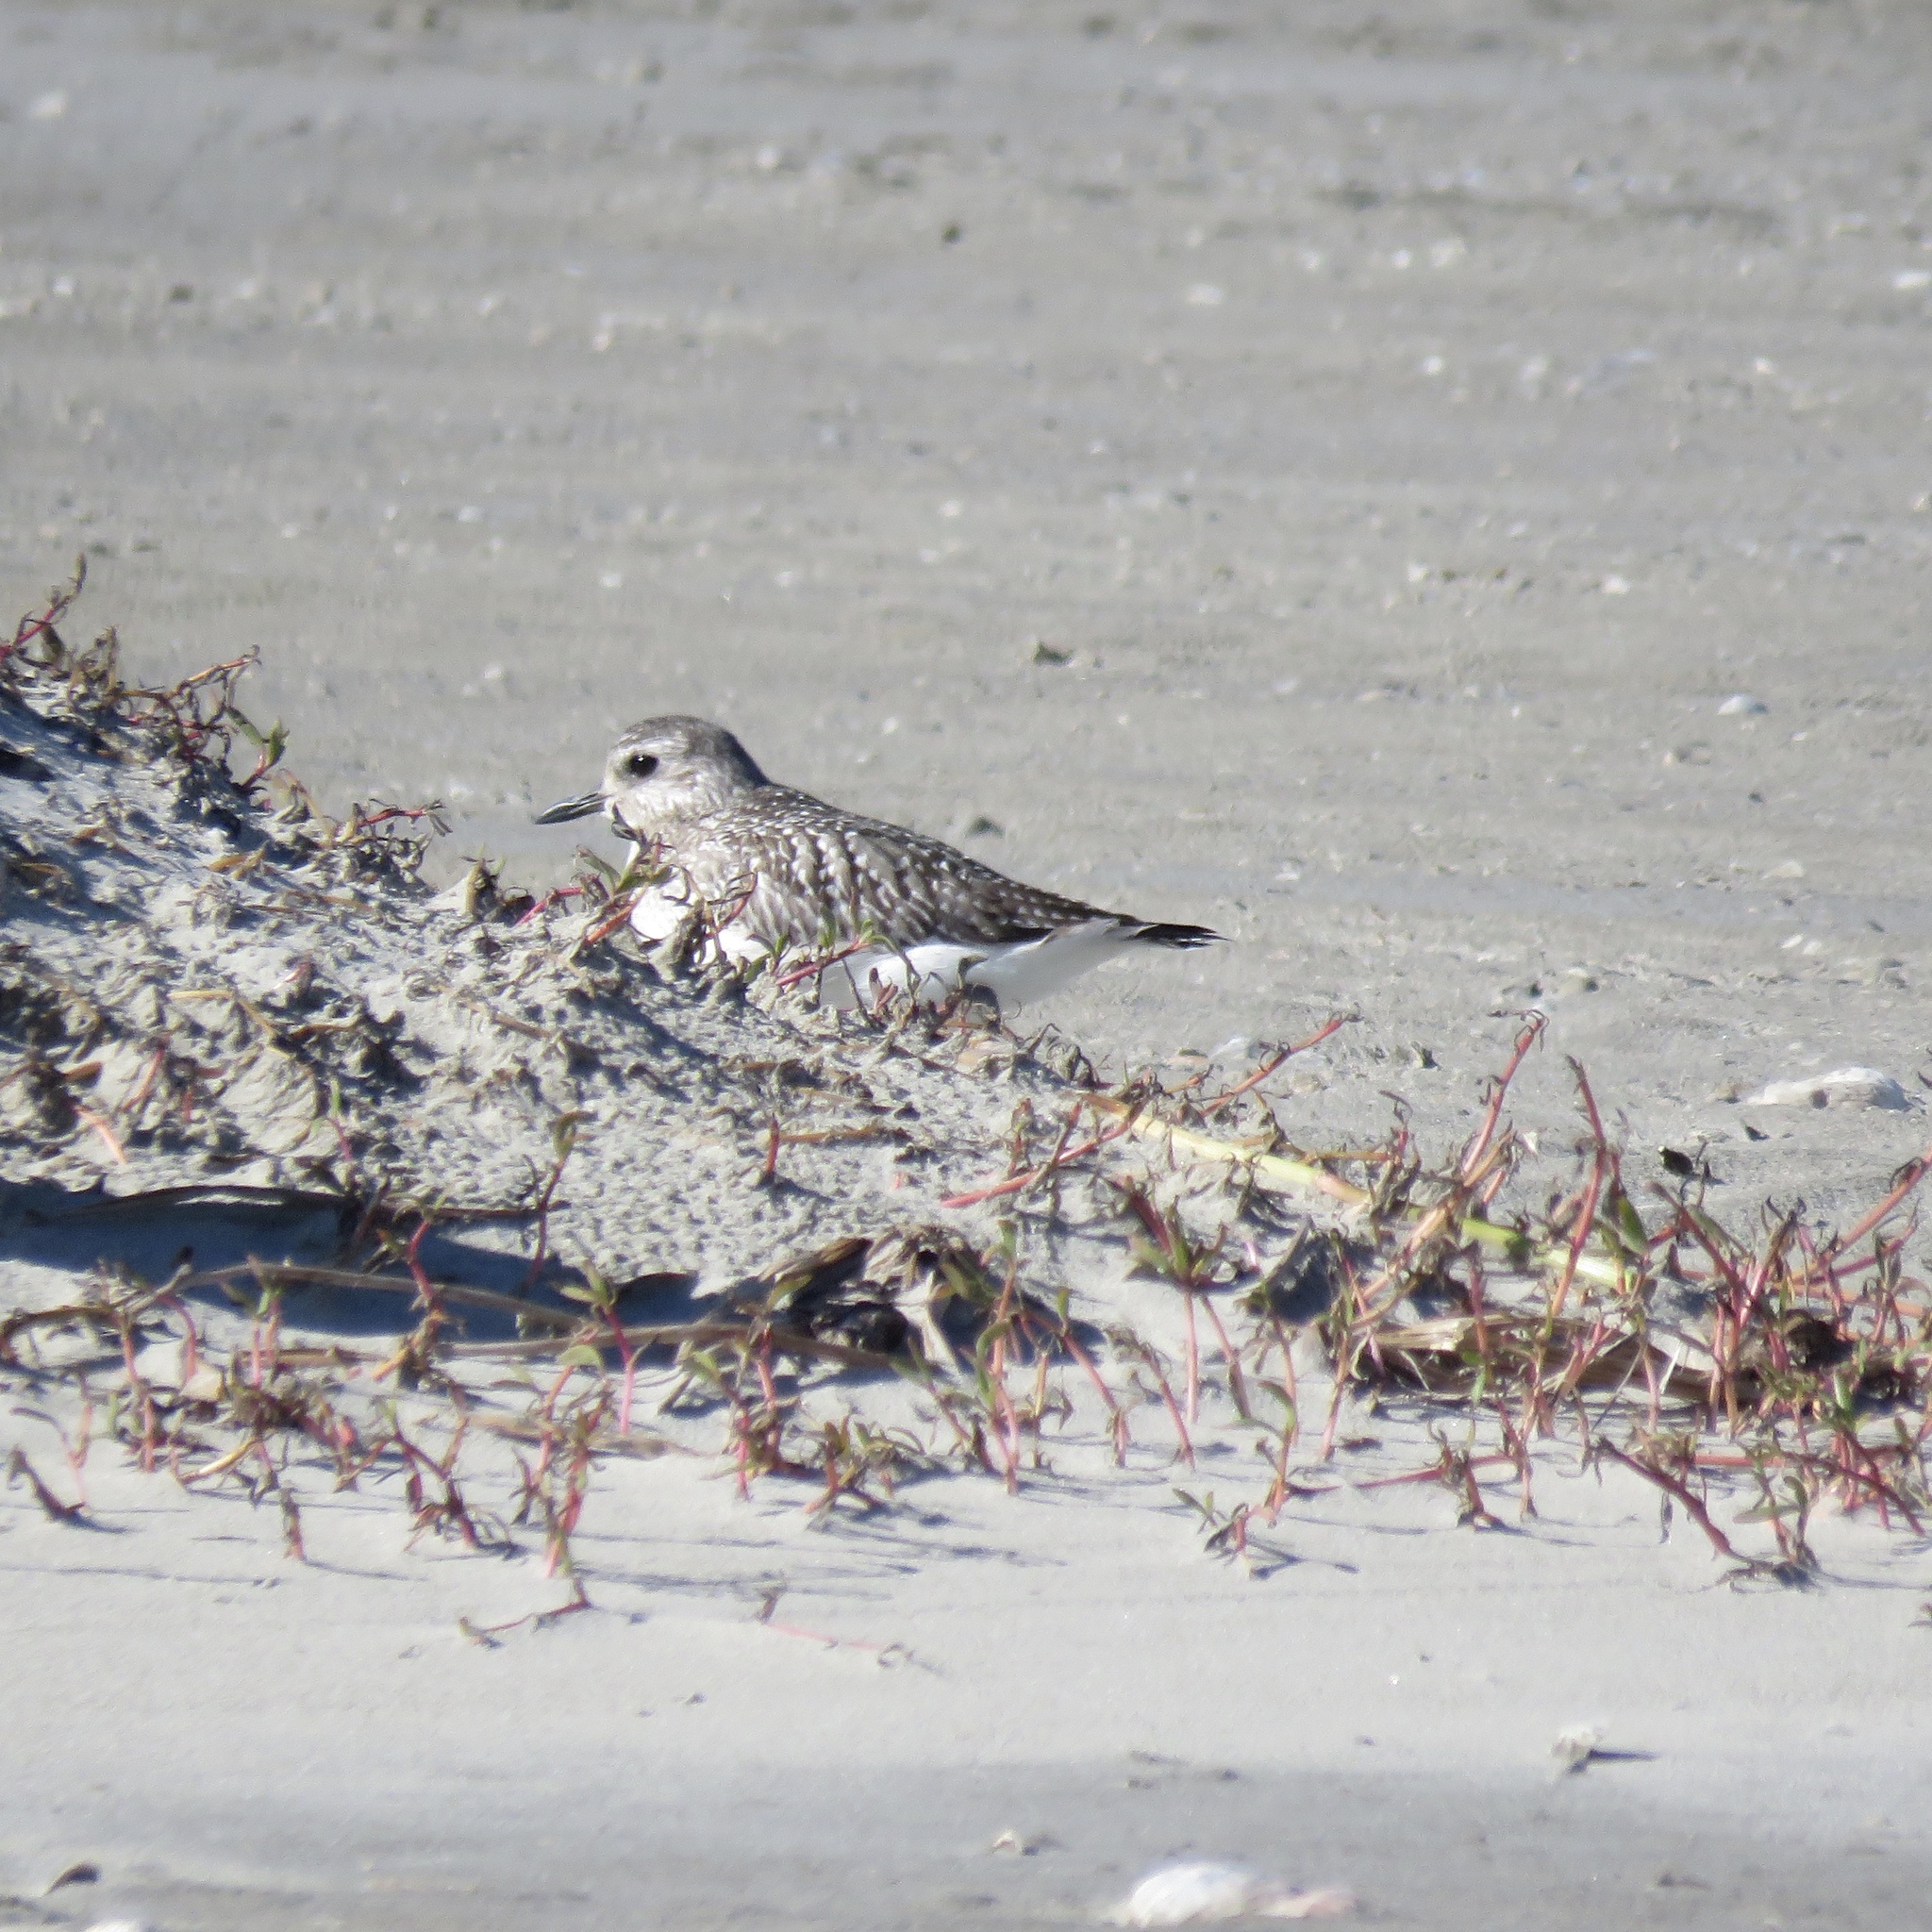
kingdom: Animalia
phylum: Chordata
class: Aves
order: Charadriiformes
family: Charadriidae
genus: Pluvialis
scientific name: Pluvialis squatarola
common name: Grey plover
